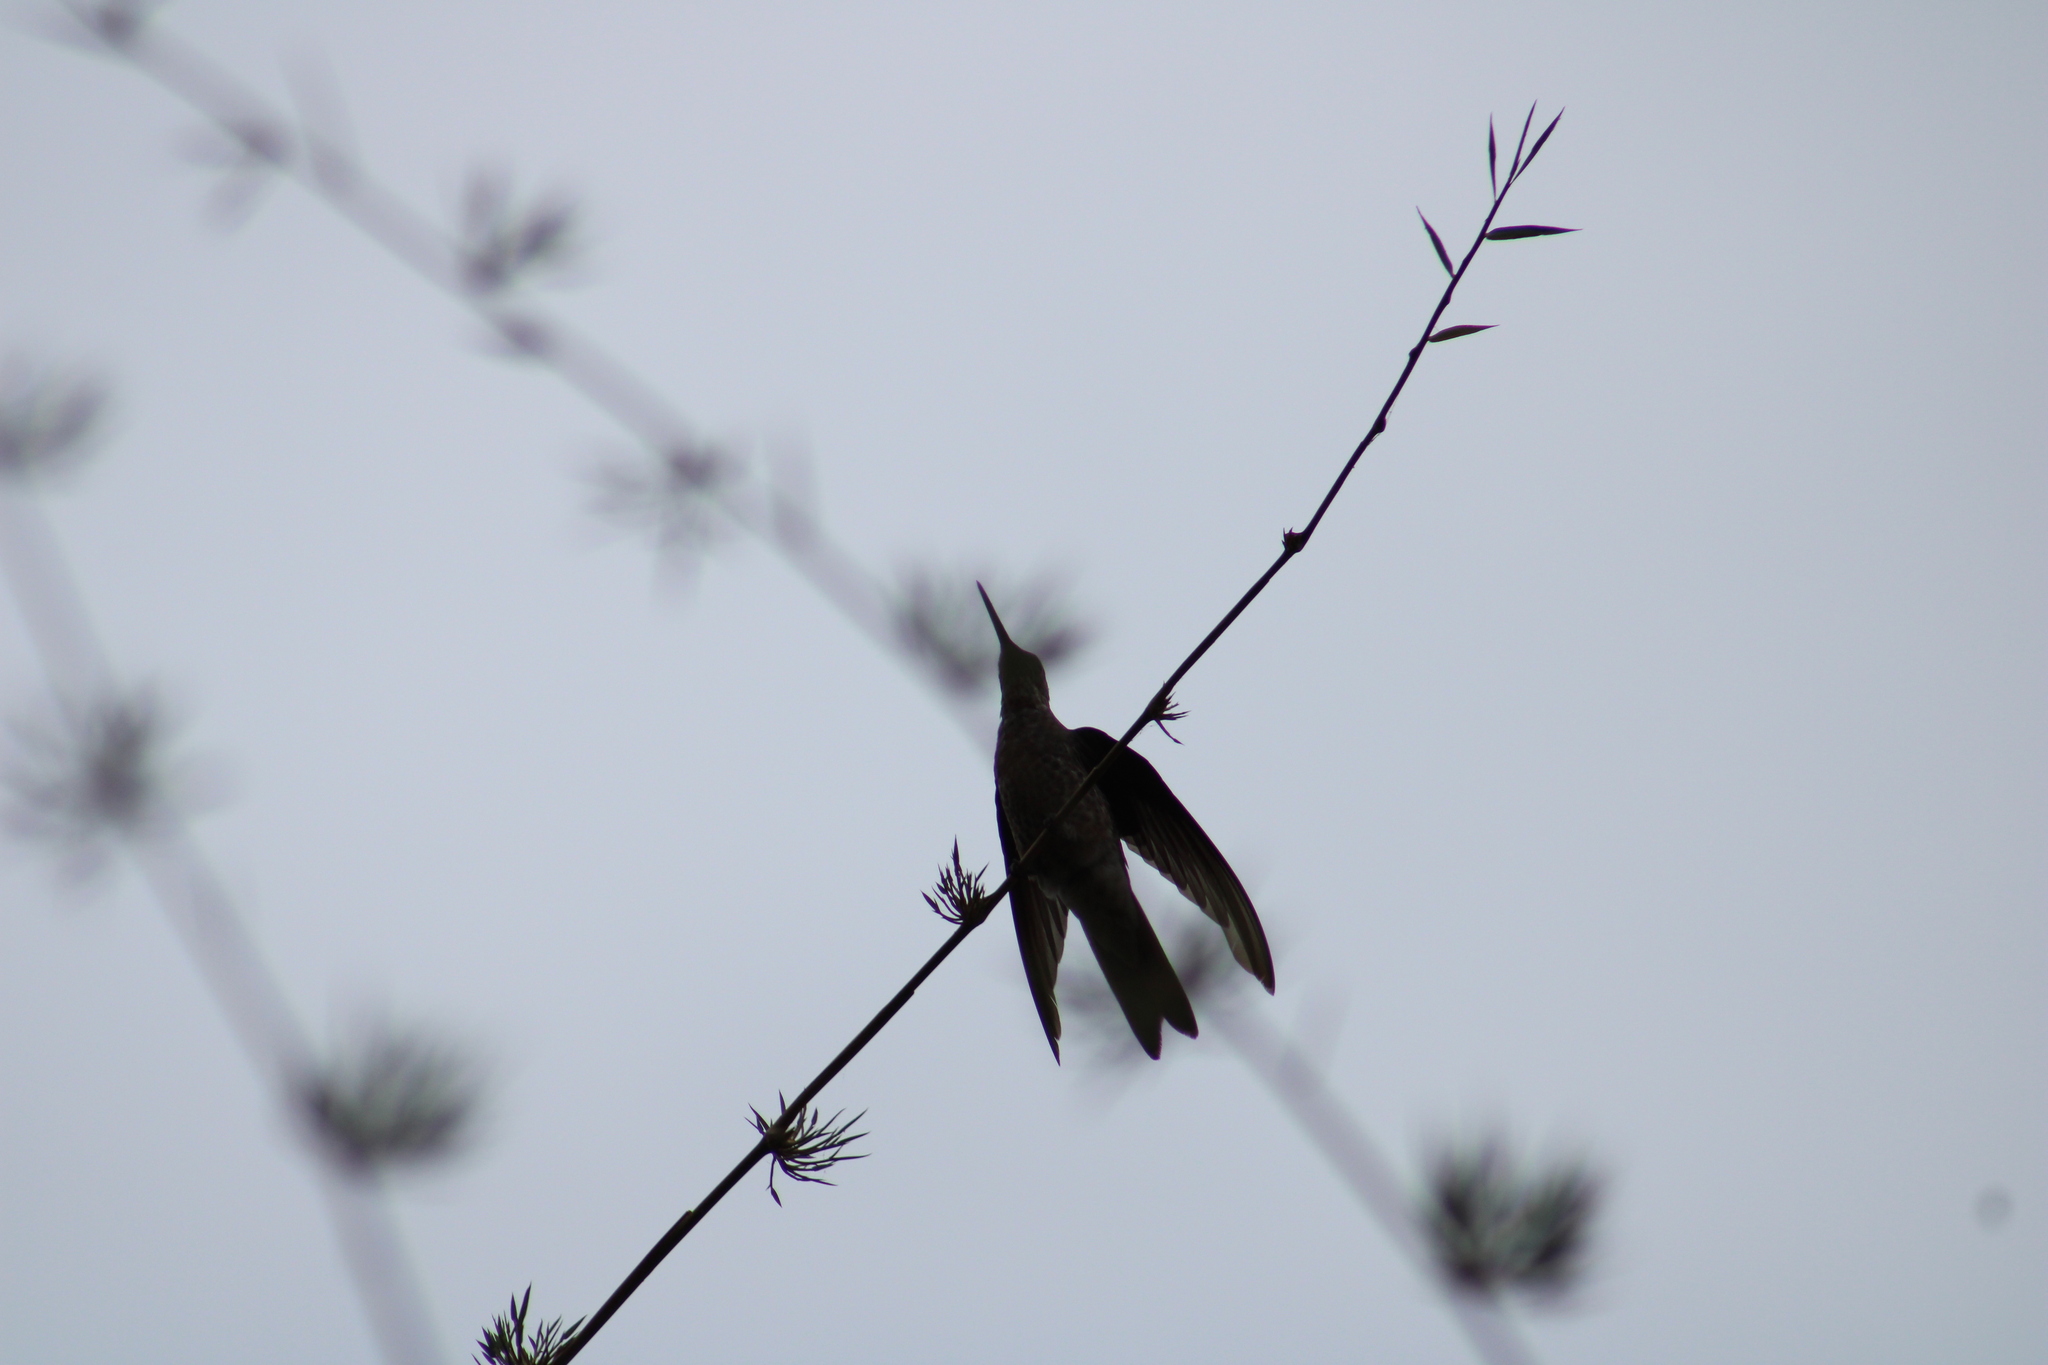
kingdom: Animalia
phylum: Chordata
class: Aves
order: Apodiformes
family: Trochilidae
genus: Patagona
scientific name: Patagona gigas
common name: Giant hummingbird
